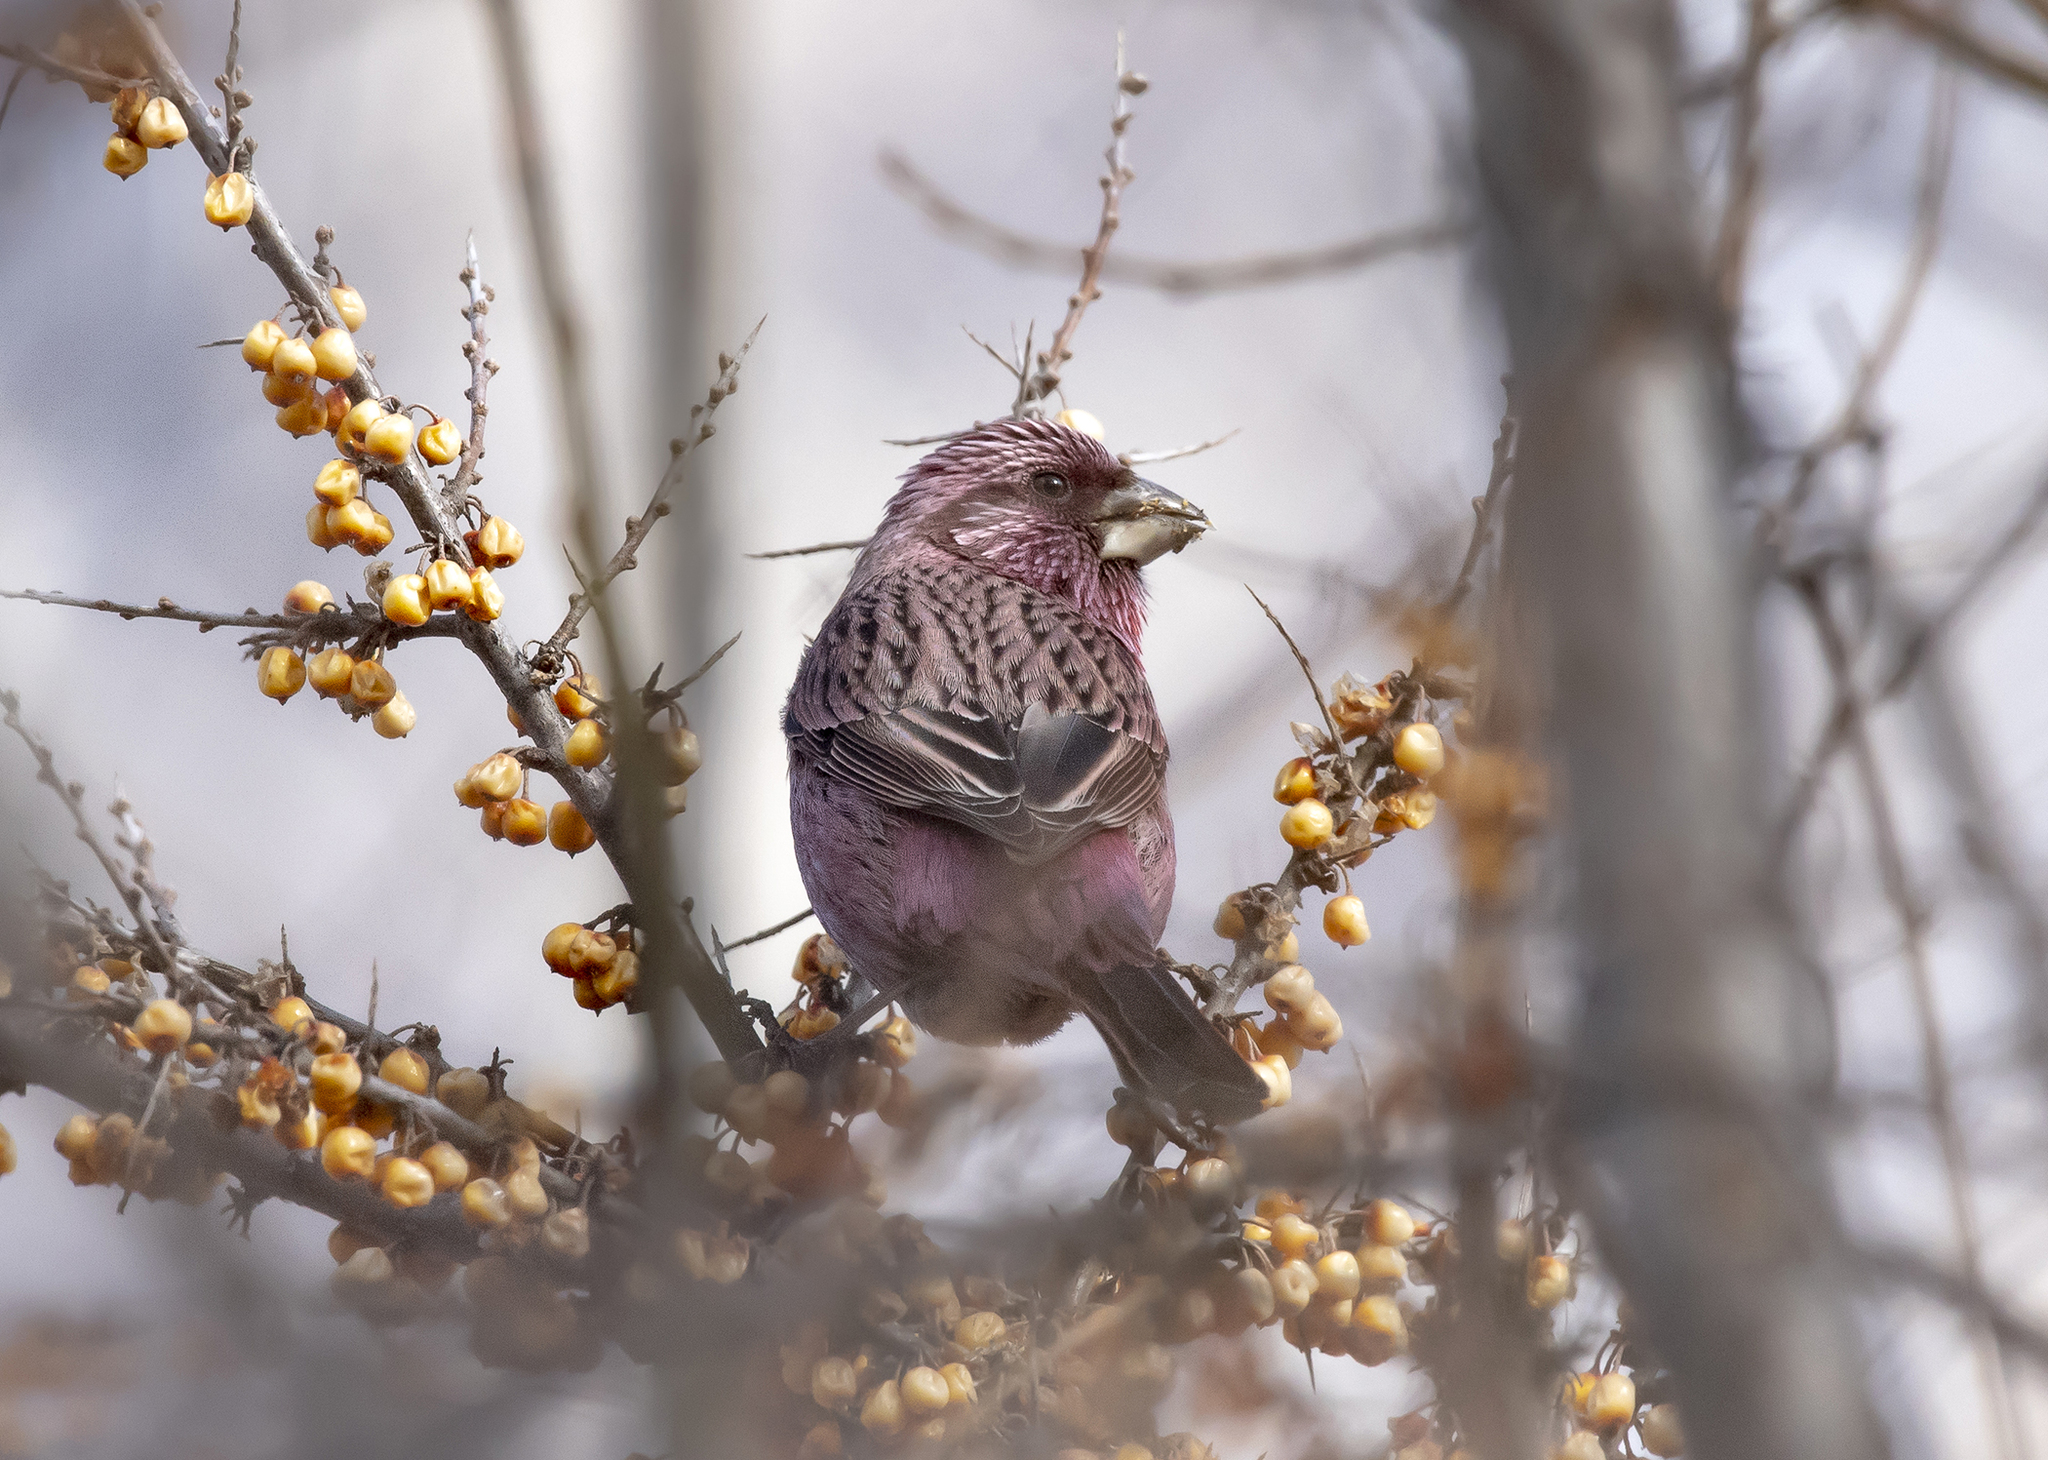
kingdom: Animalia
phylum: Chordata
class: Aves
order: Passeriformes
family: Fringillidae
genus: Carpodacus
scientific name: Carpodacus rhodochlamys
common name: Red-mantled rosefinch
